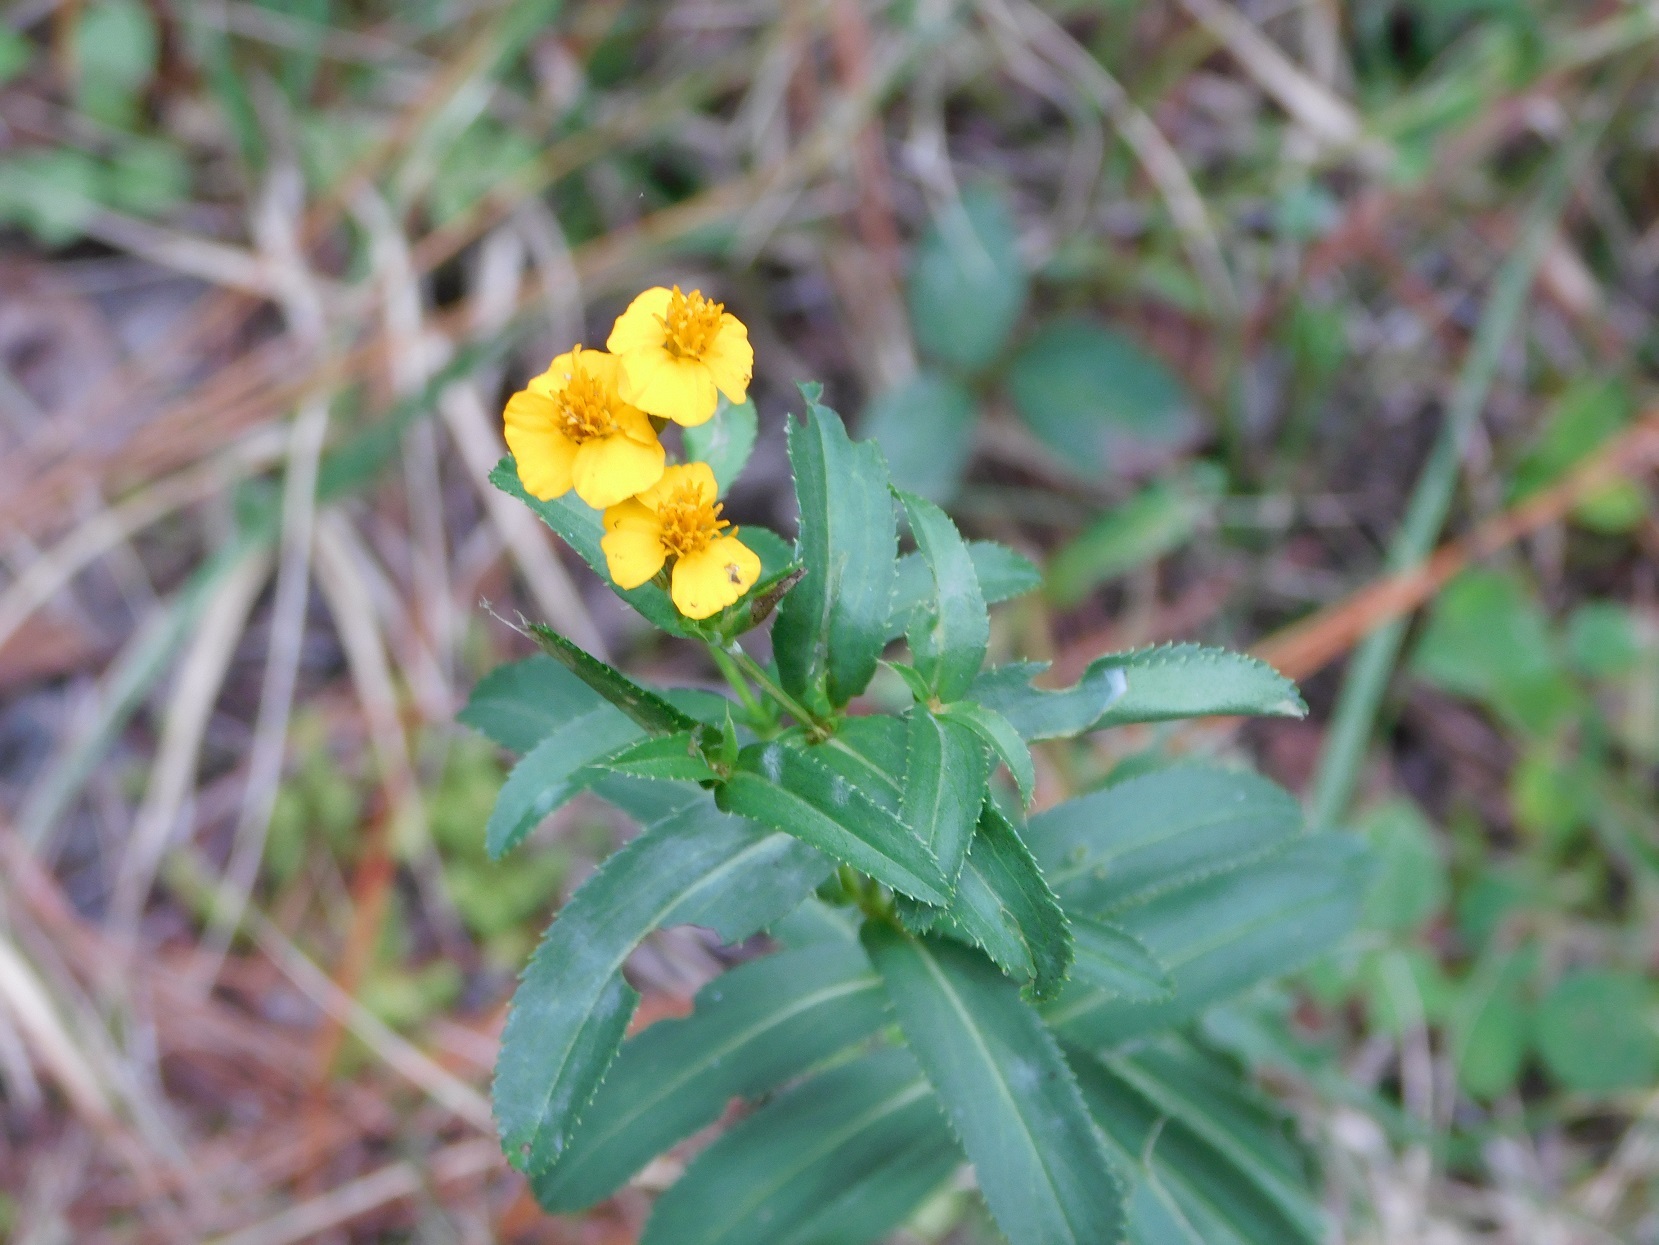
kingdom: Plantae
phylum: Tracheophyta
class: Magnoliopsida
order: Asterales
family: Asteraceae
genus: Tagetes
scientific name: Tagetes lucida
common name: Sweetscented marigold
